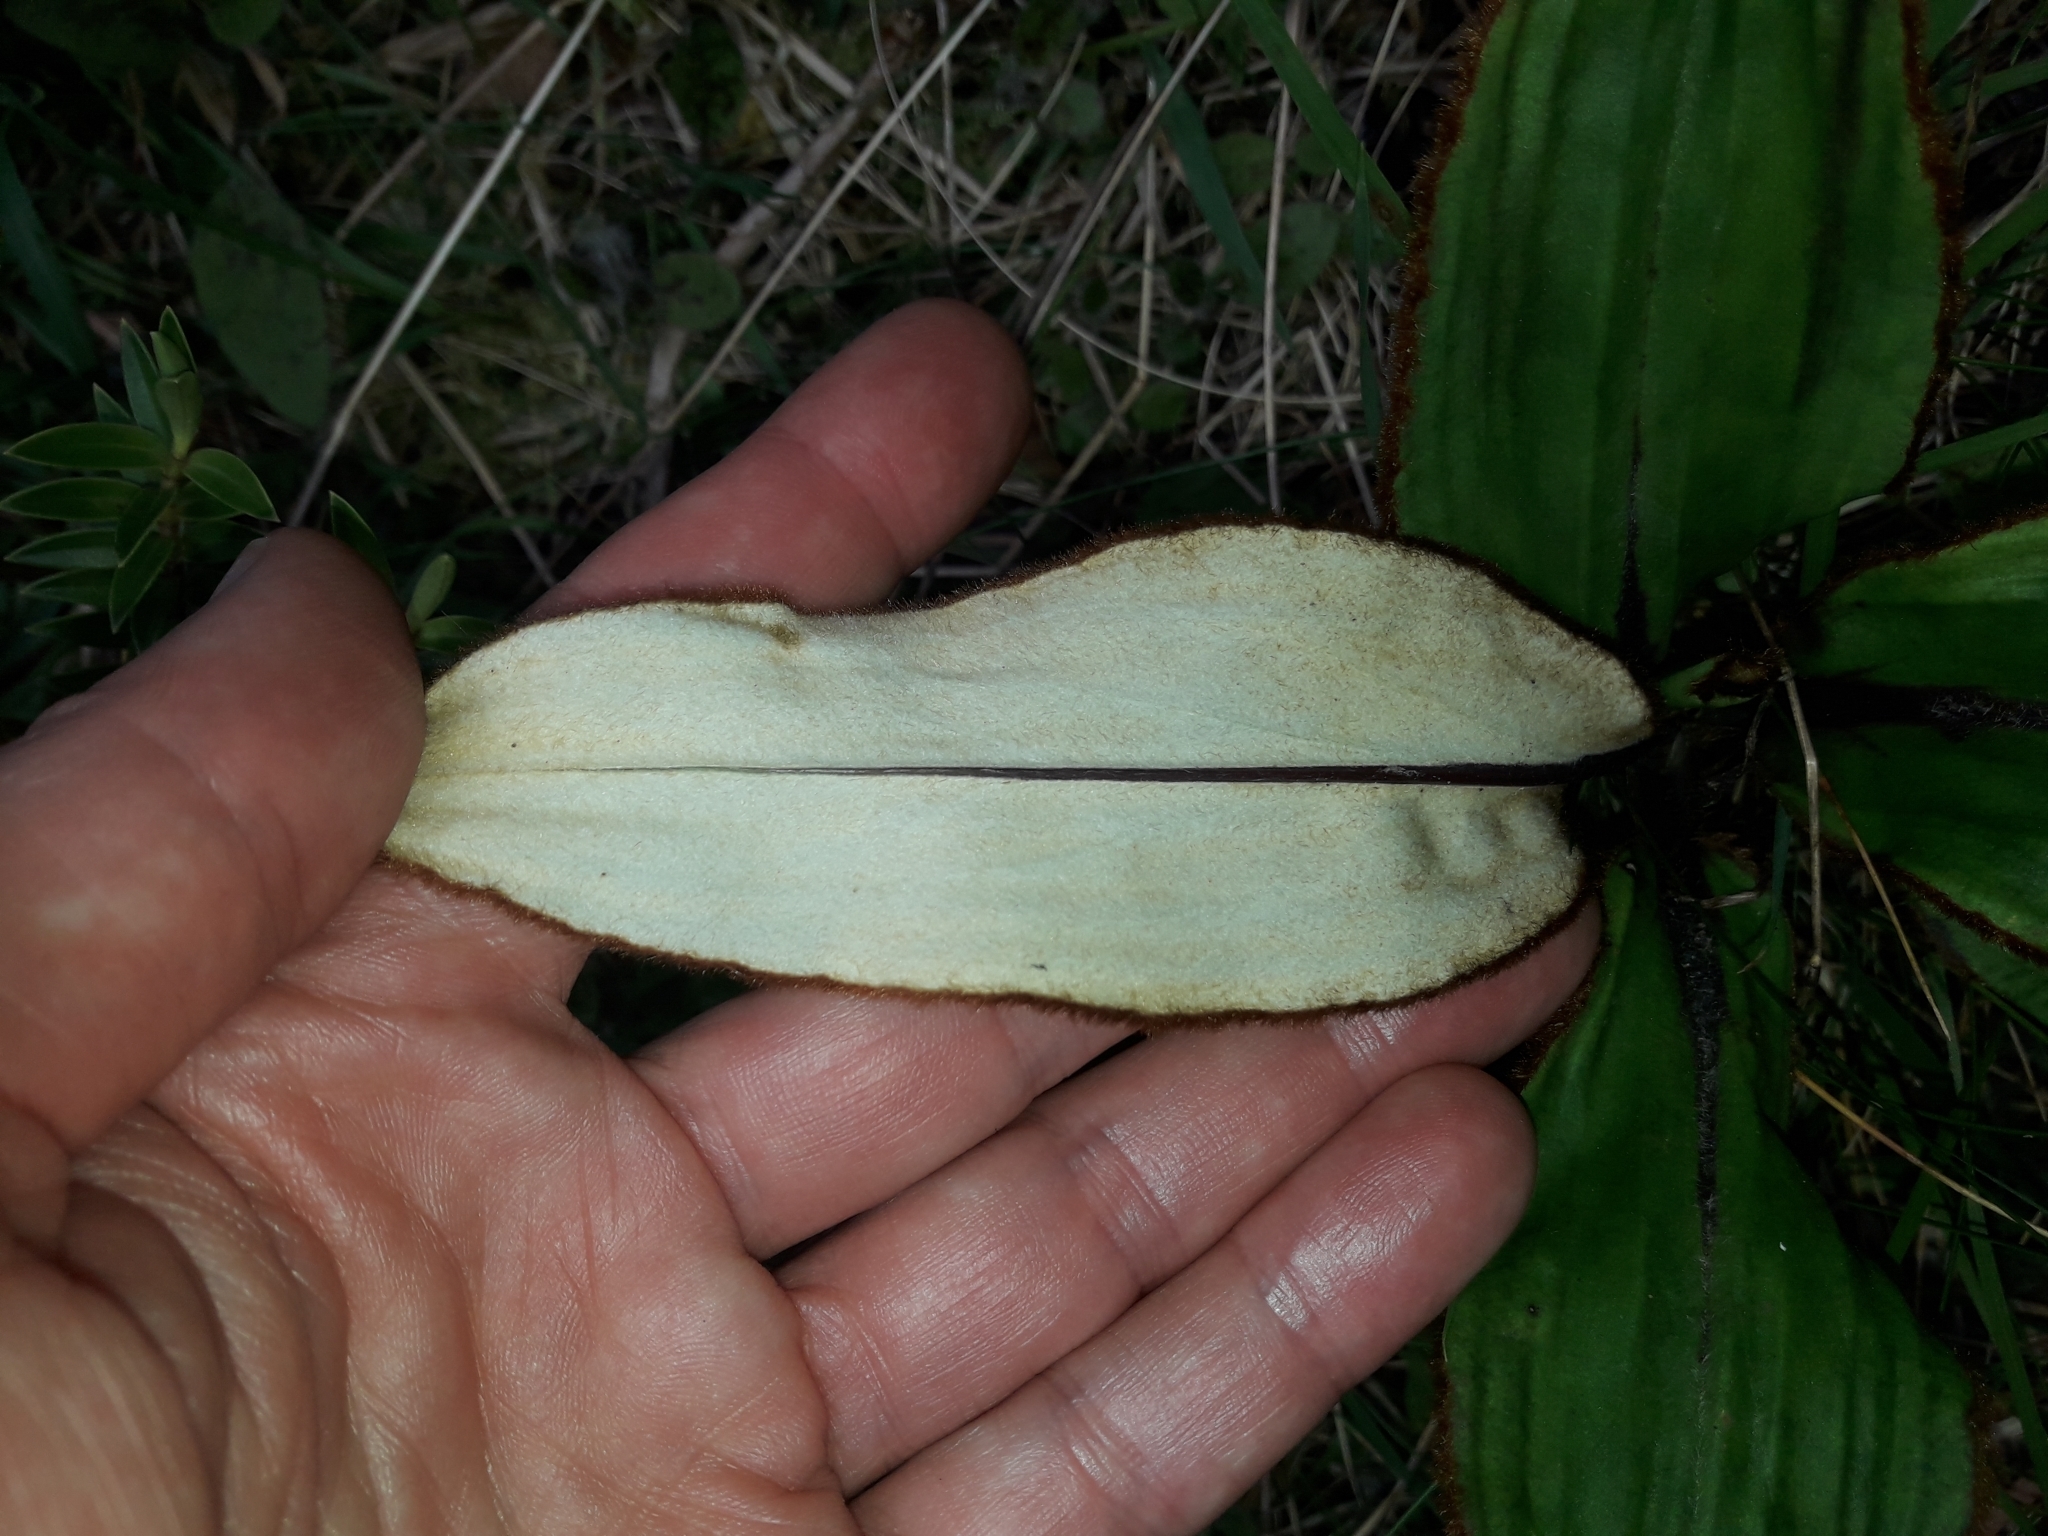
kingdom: Plantae
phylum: Tracheophyta
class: Magnoliopsida
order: Asterales
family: Asteraceae
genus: Celmisia
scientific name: Celmisia traversii
